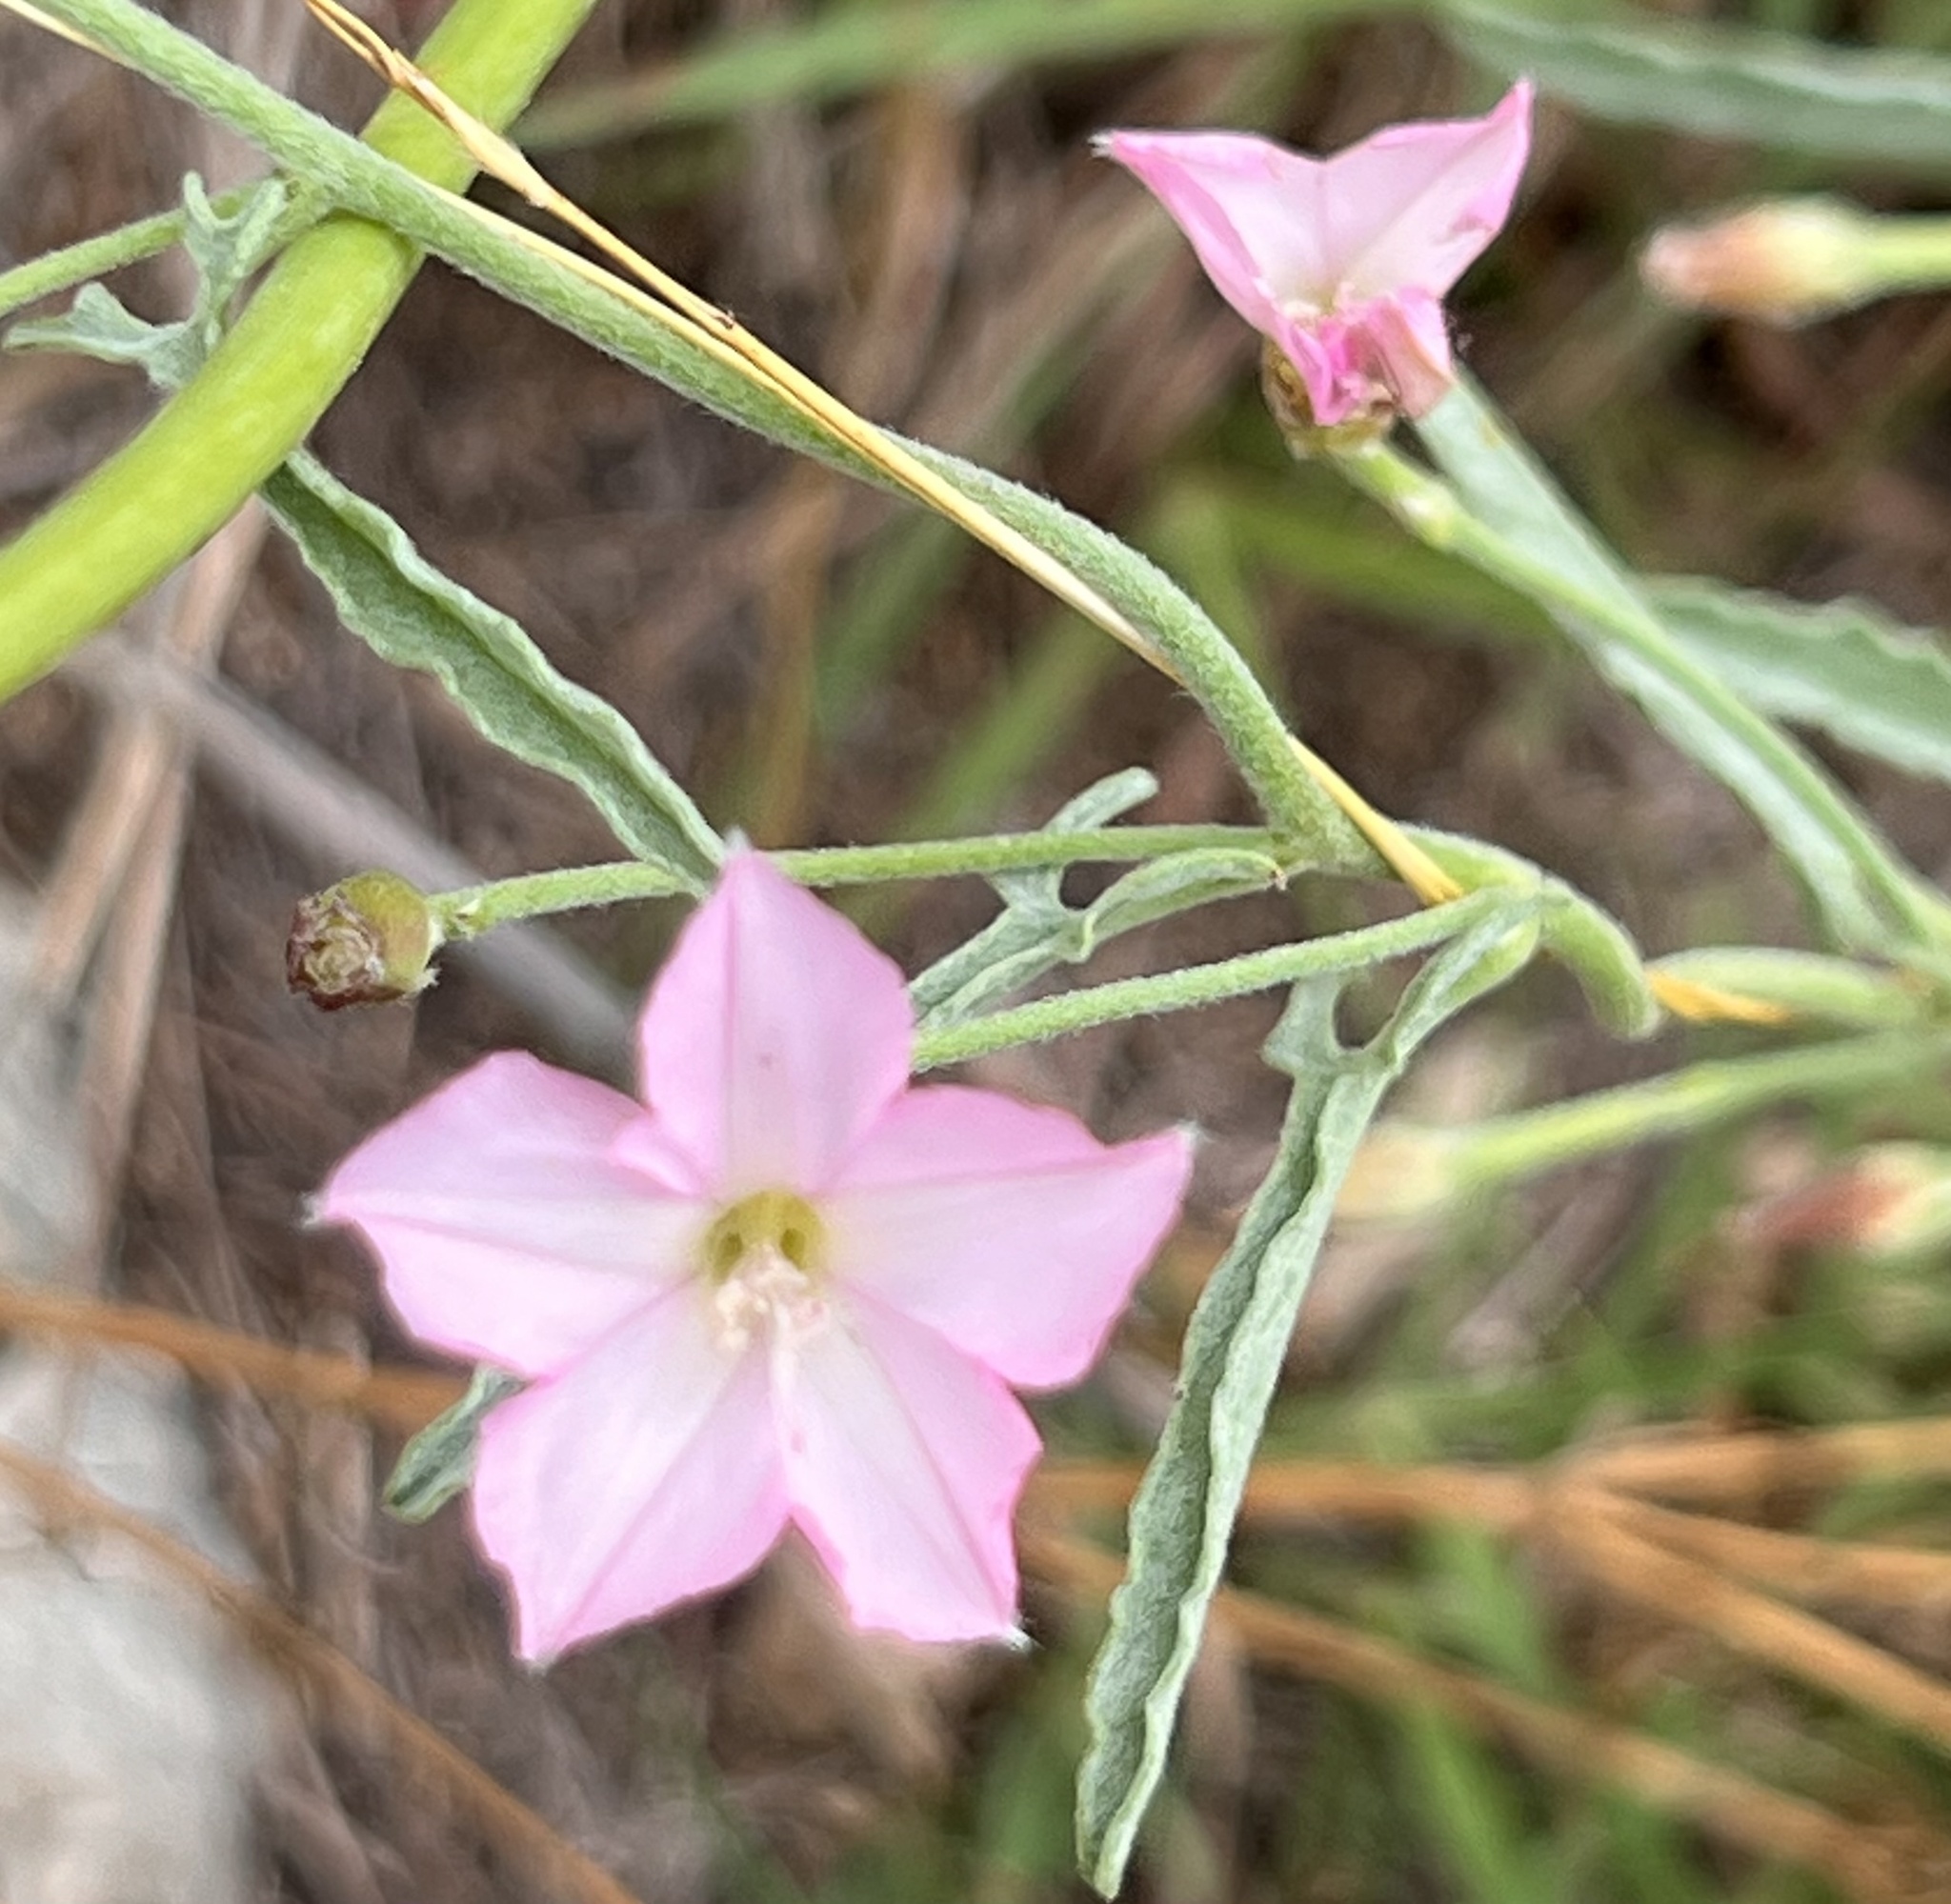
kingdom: Plantae
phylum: Tracheophyta
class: Magnoliopsida
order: Solanales
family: Convolvulaceae
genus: Convolvulus
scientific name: Convolvulus equitans
